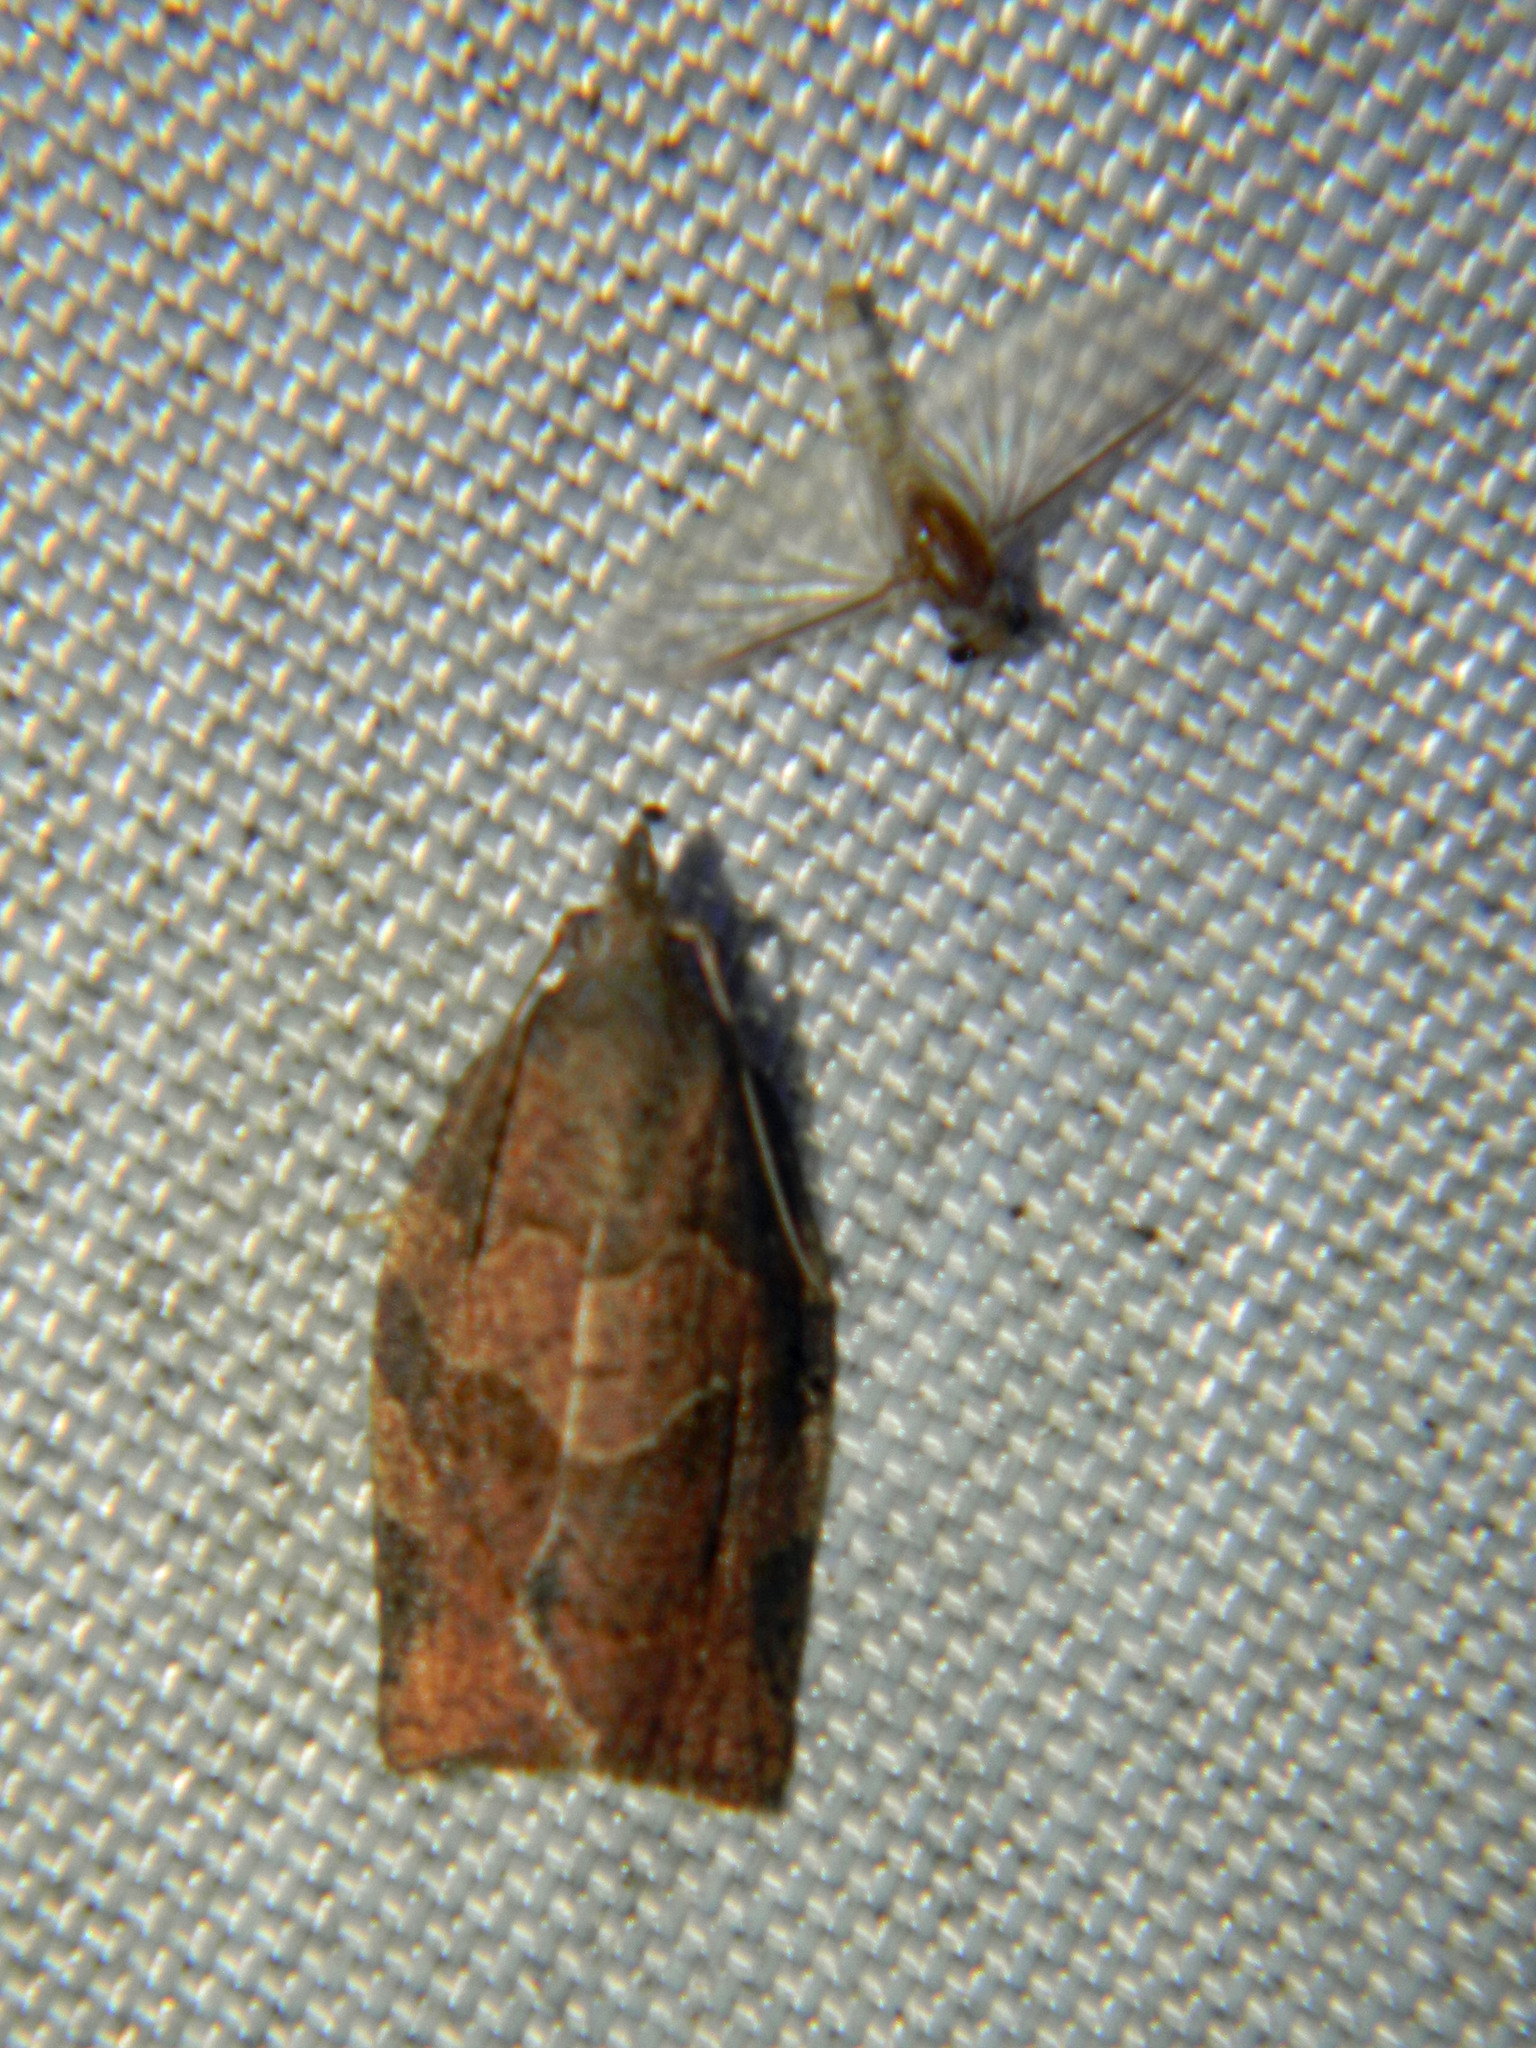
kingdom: Animalia
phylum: Arthropoda
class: Insecta
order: Lepidoptera
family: Tortricidae
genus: Pandemis
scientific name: Pandemis canadana
